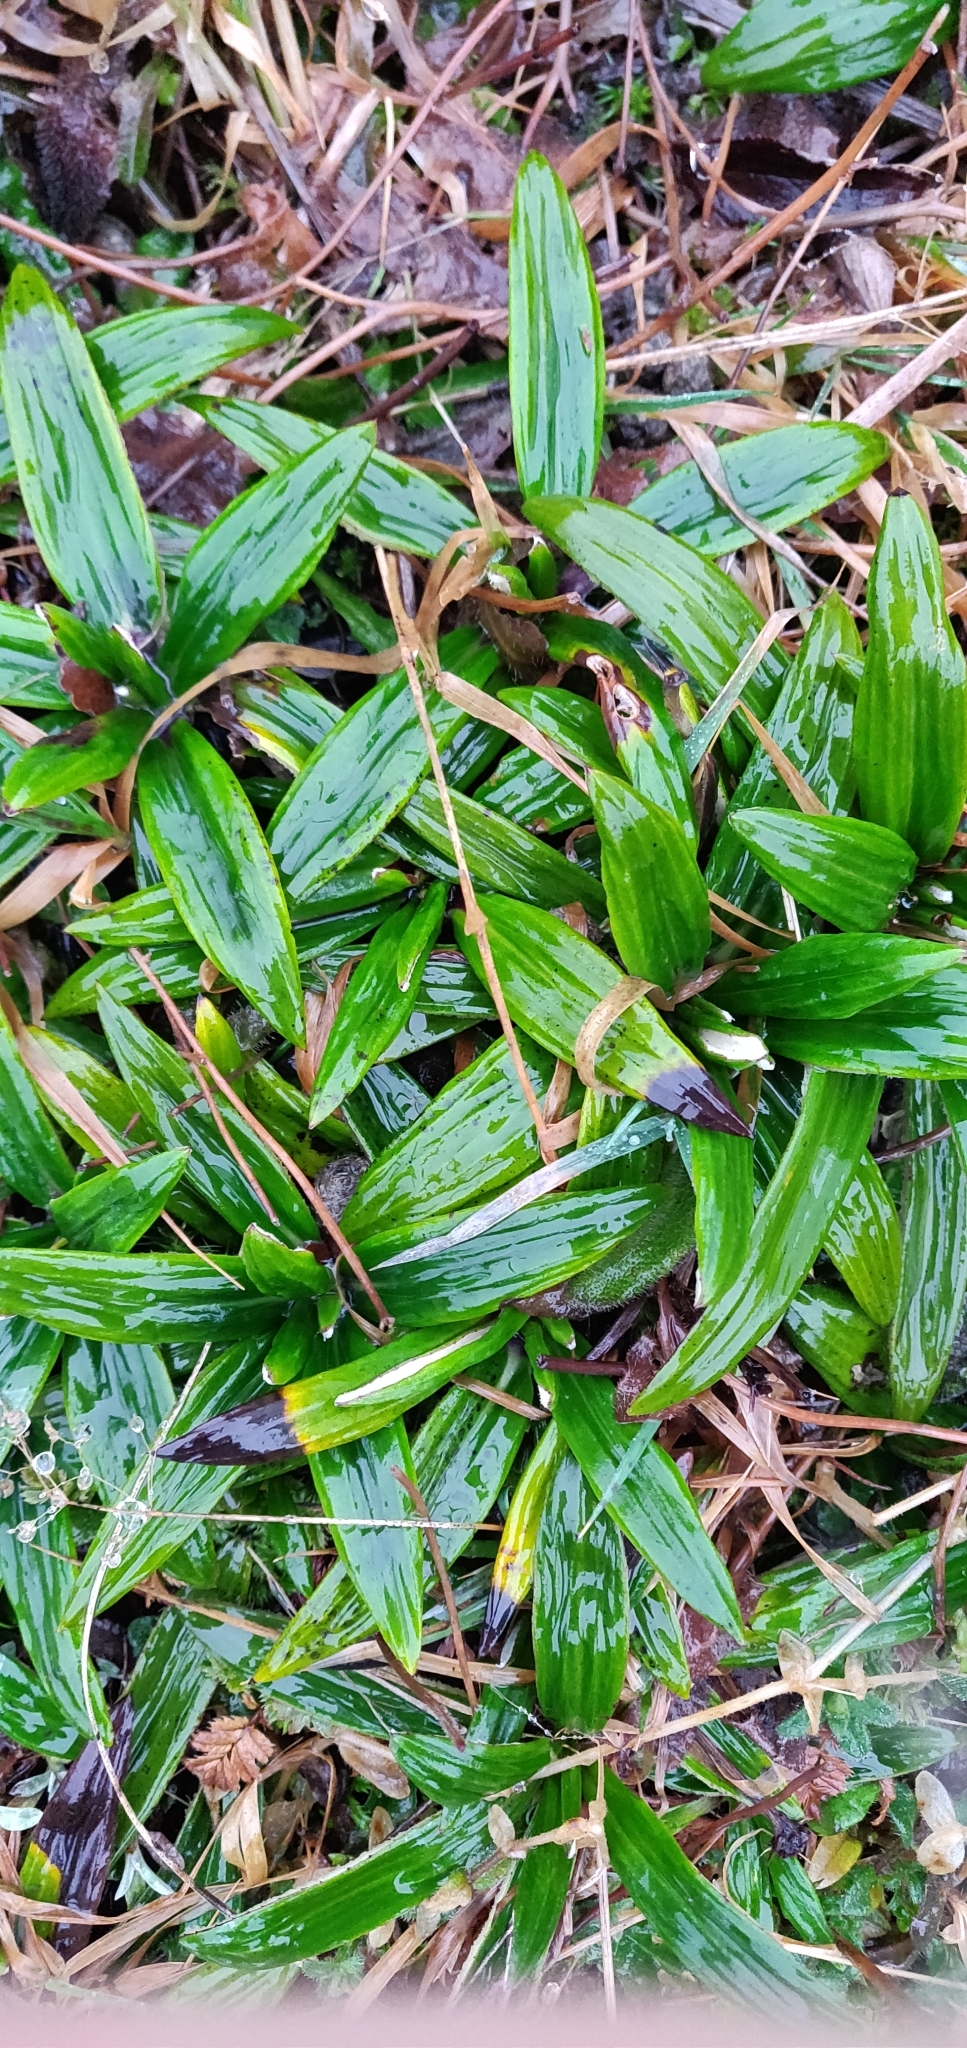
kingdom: Plantae
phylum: Tracheophyta
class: Magnoliopsida
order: Asterales
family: Asteraceae
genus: Celmisia
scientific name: Celmisia spectabilis
